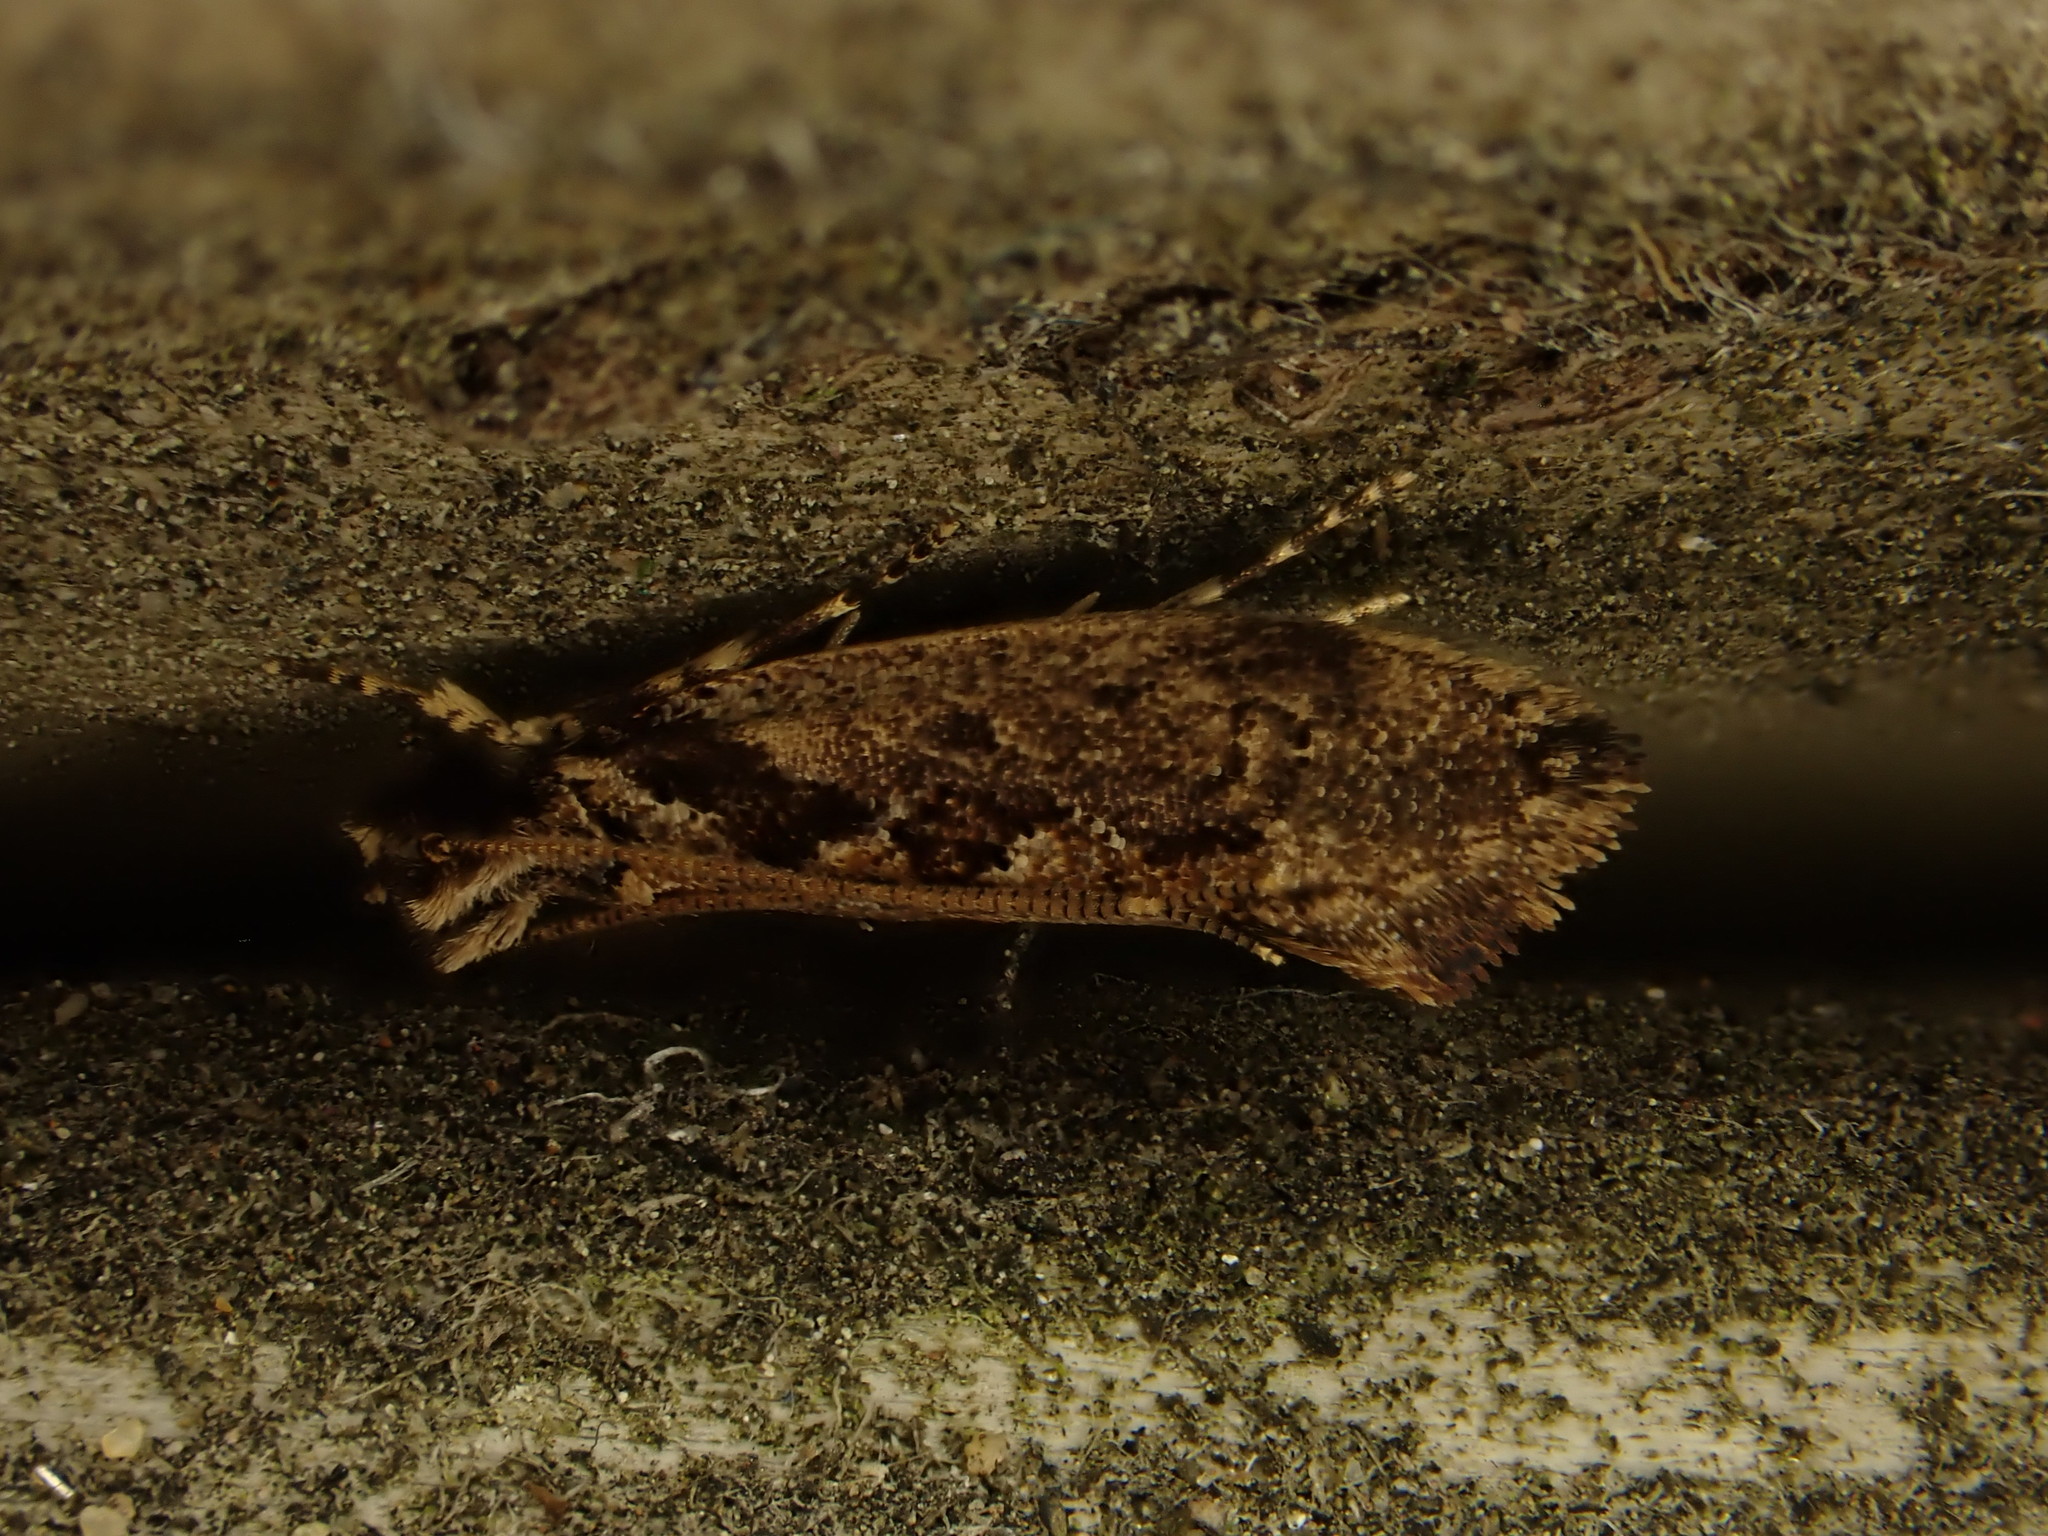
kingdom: Animalia
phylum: Arthropoda
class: Insecta
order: Lepidoptera
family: Tineidae
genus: Erechthias
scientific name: Erechthias capnitis
